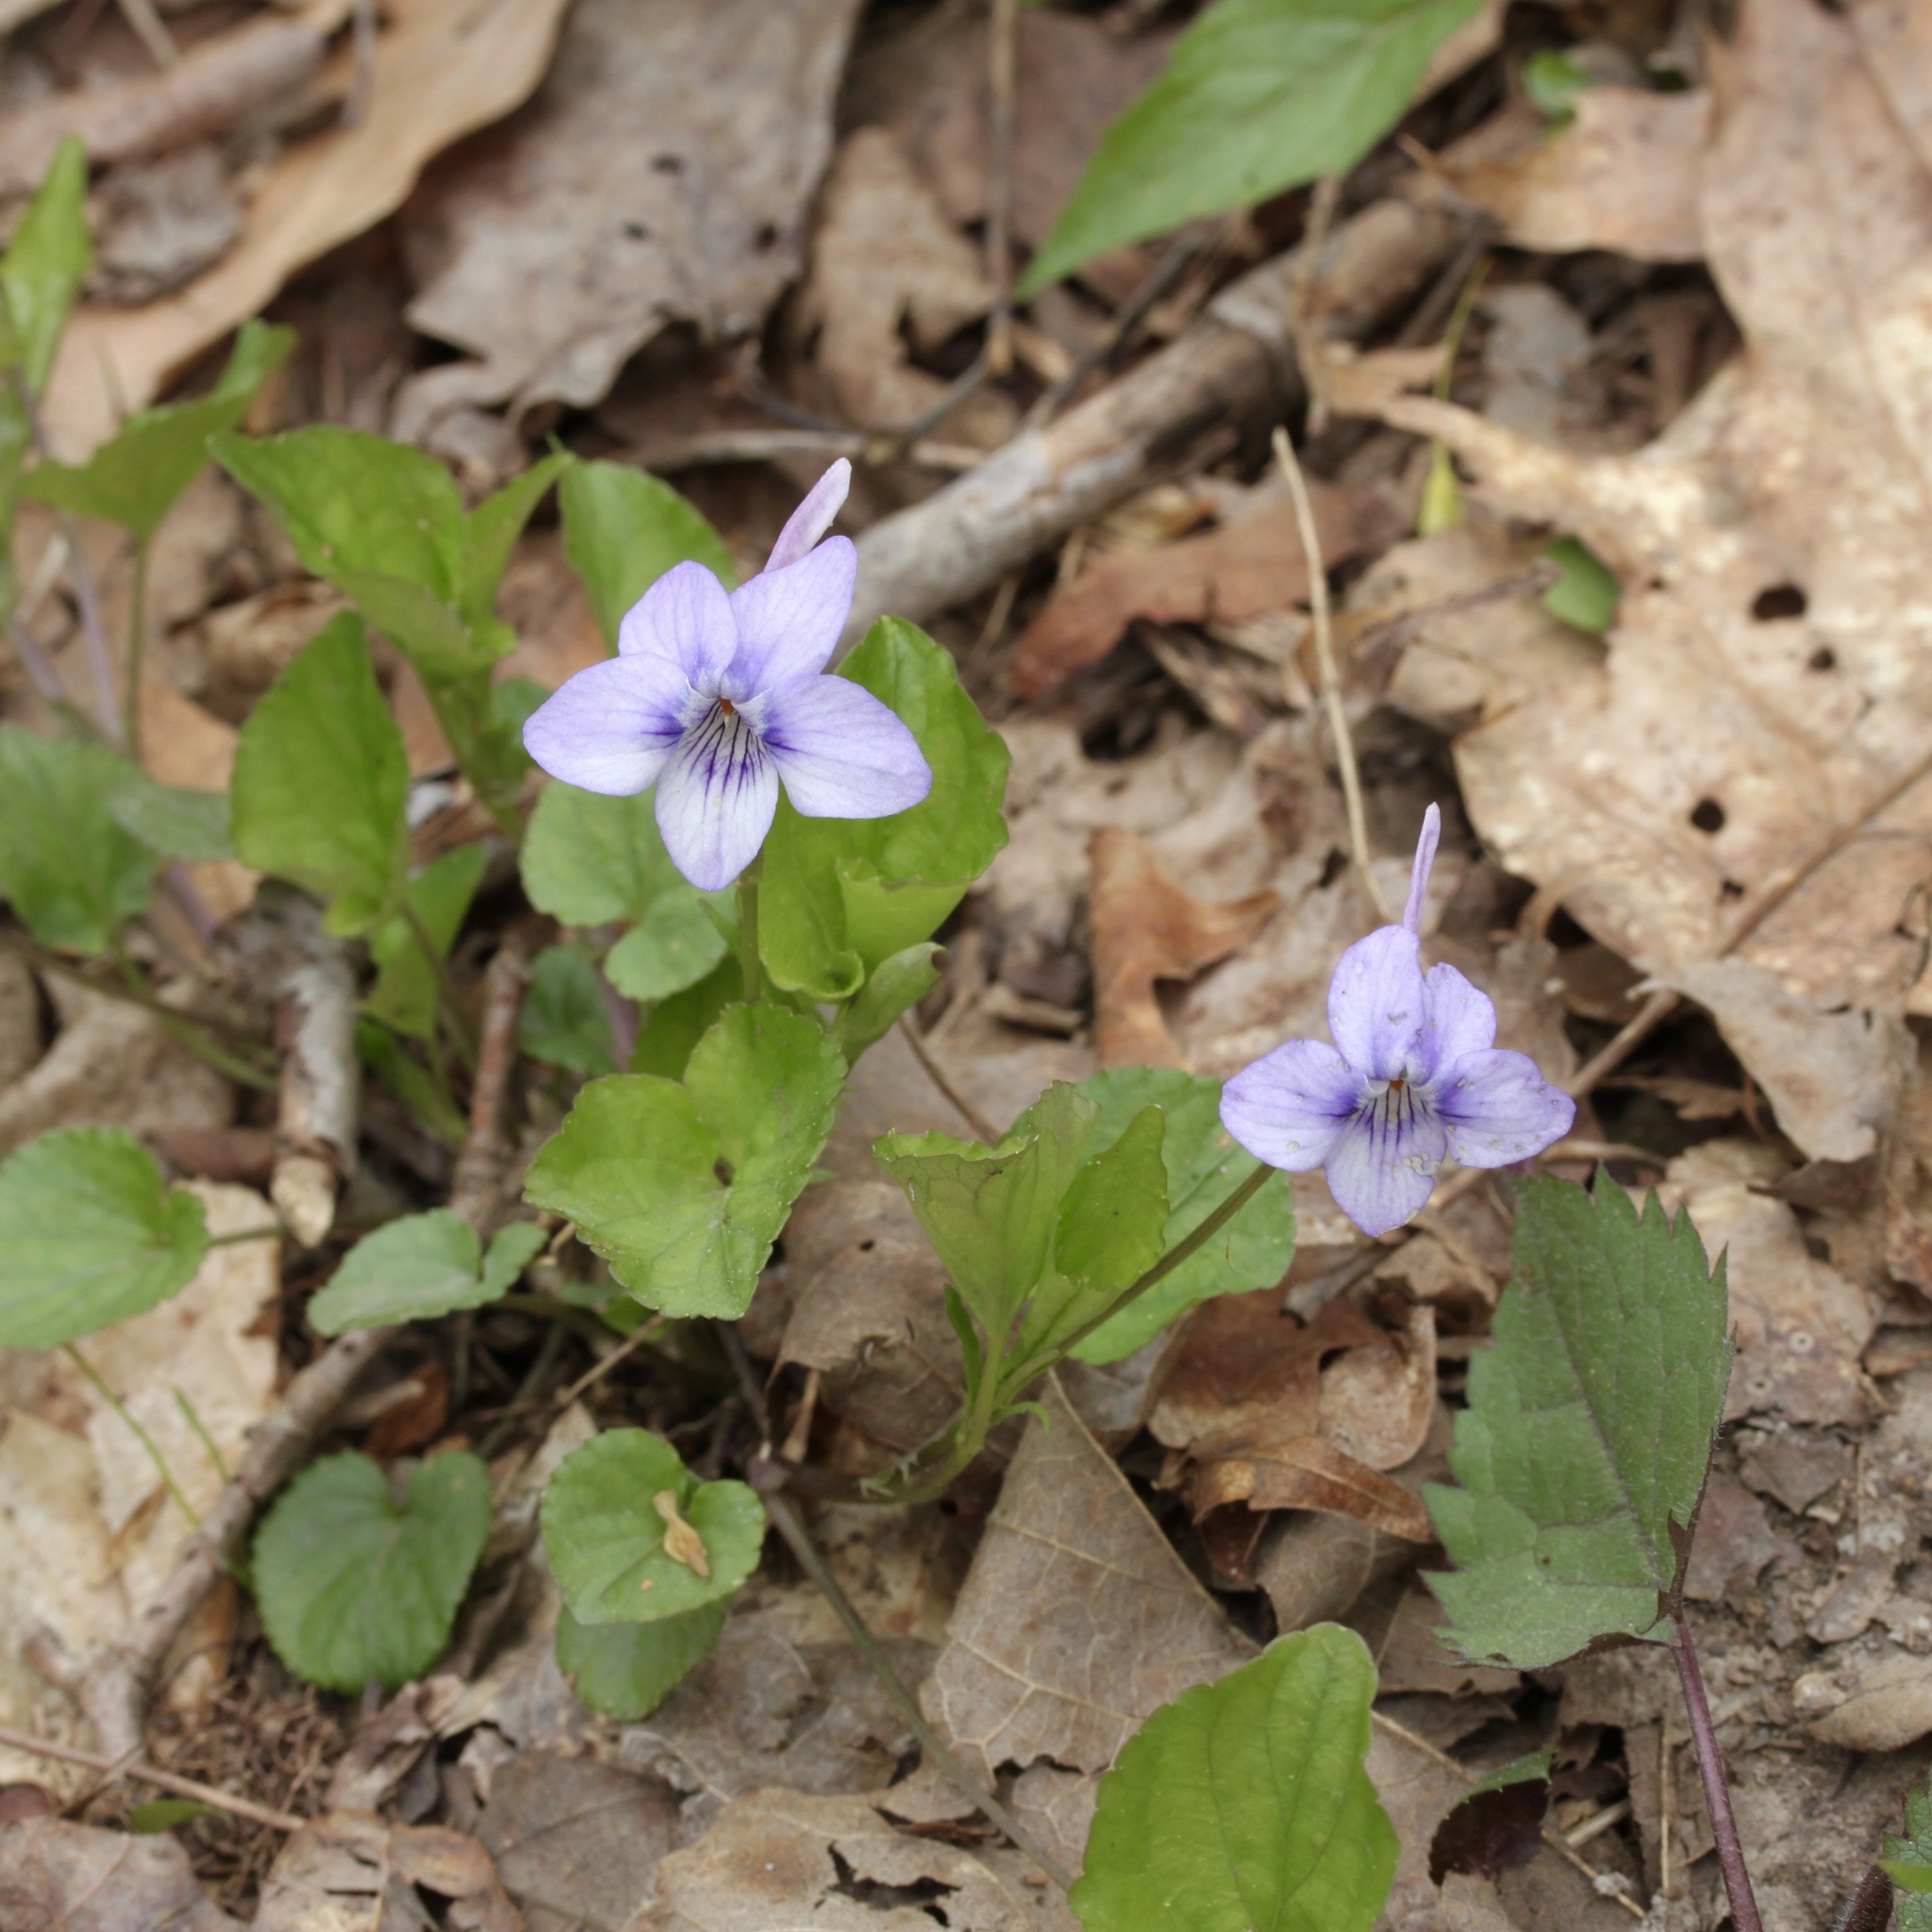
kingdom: Plantae
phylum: Tracheophyta
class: Magnoliopsida
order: Malpighiales
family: Violaceae
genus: Viola
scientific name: Viola rostrata
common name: Long-spur violet
